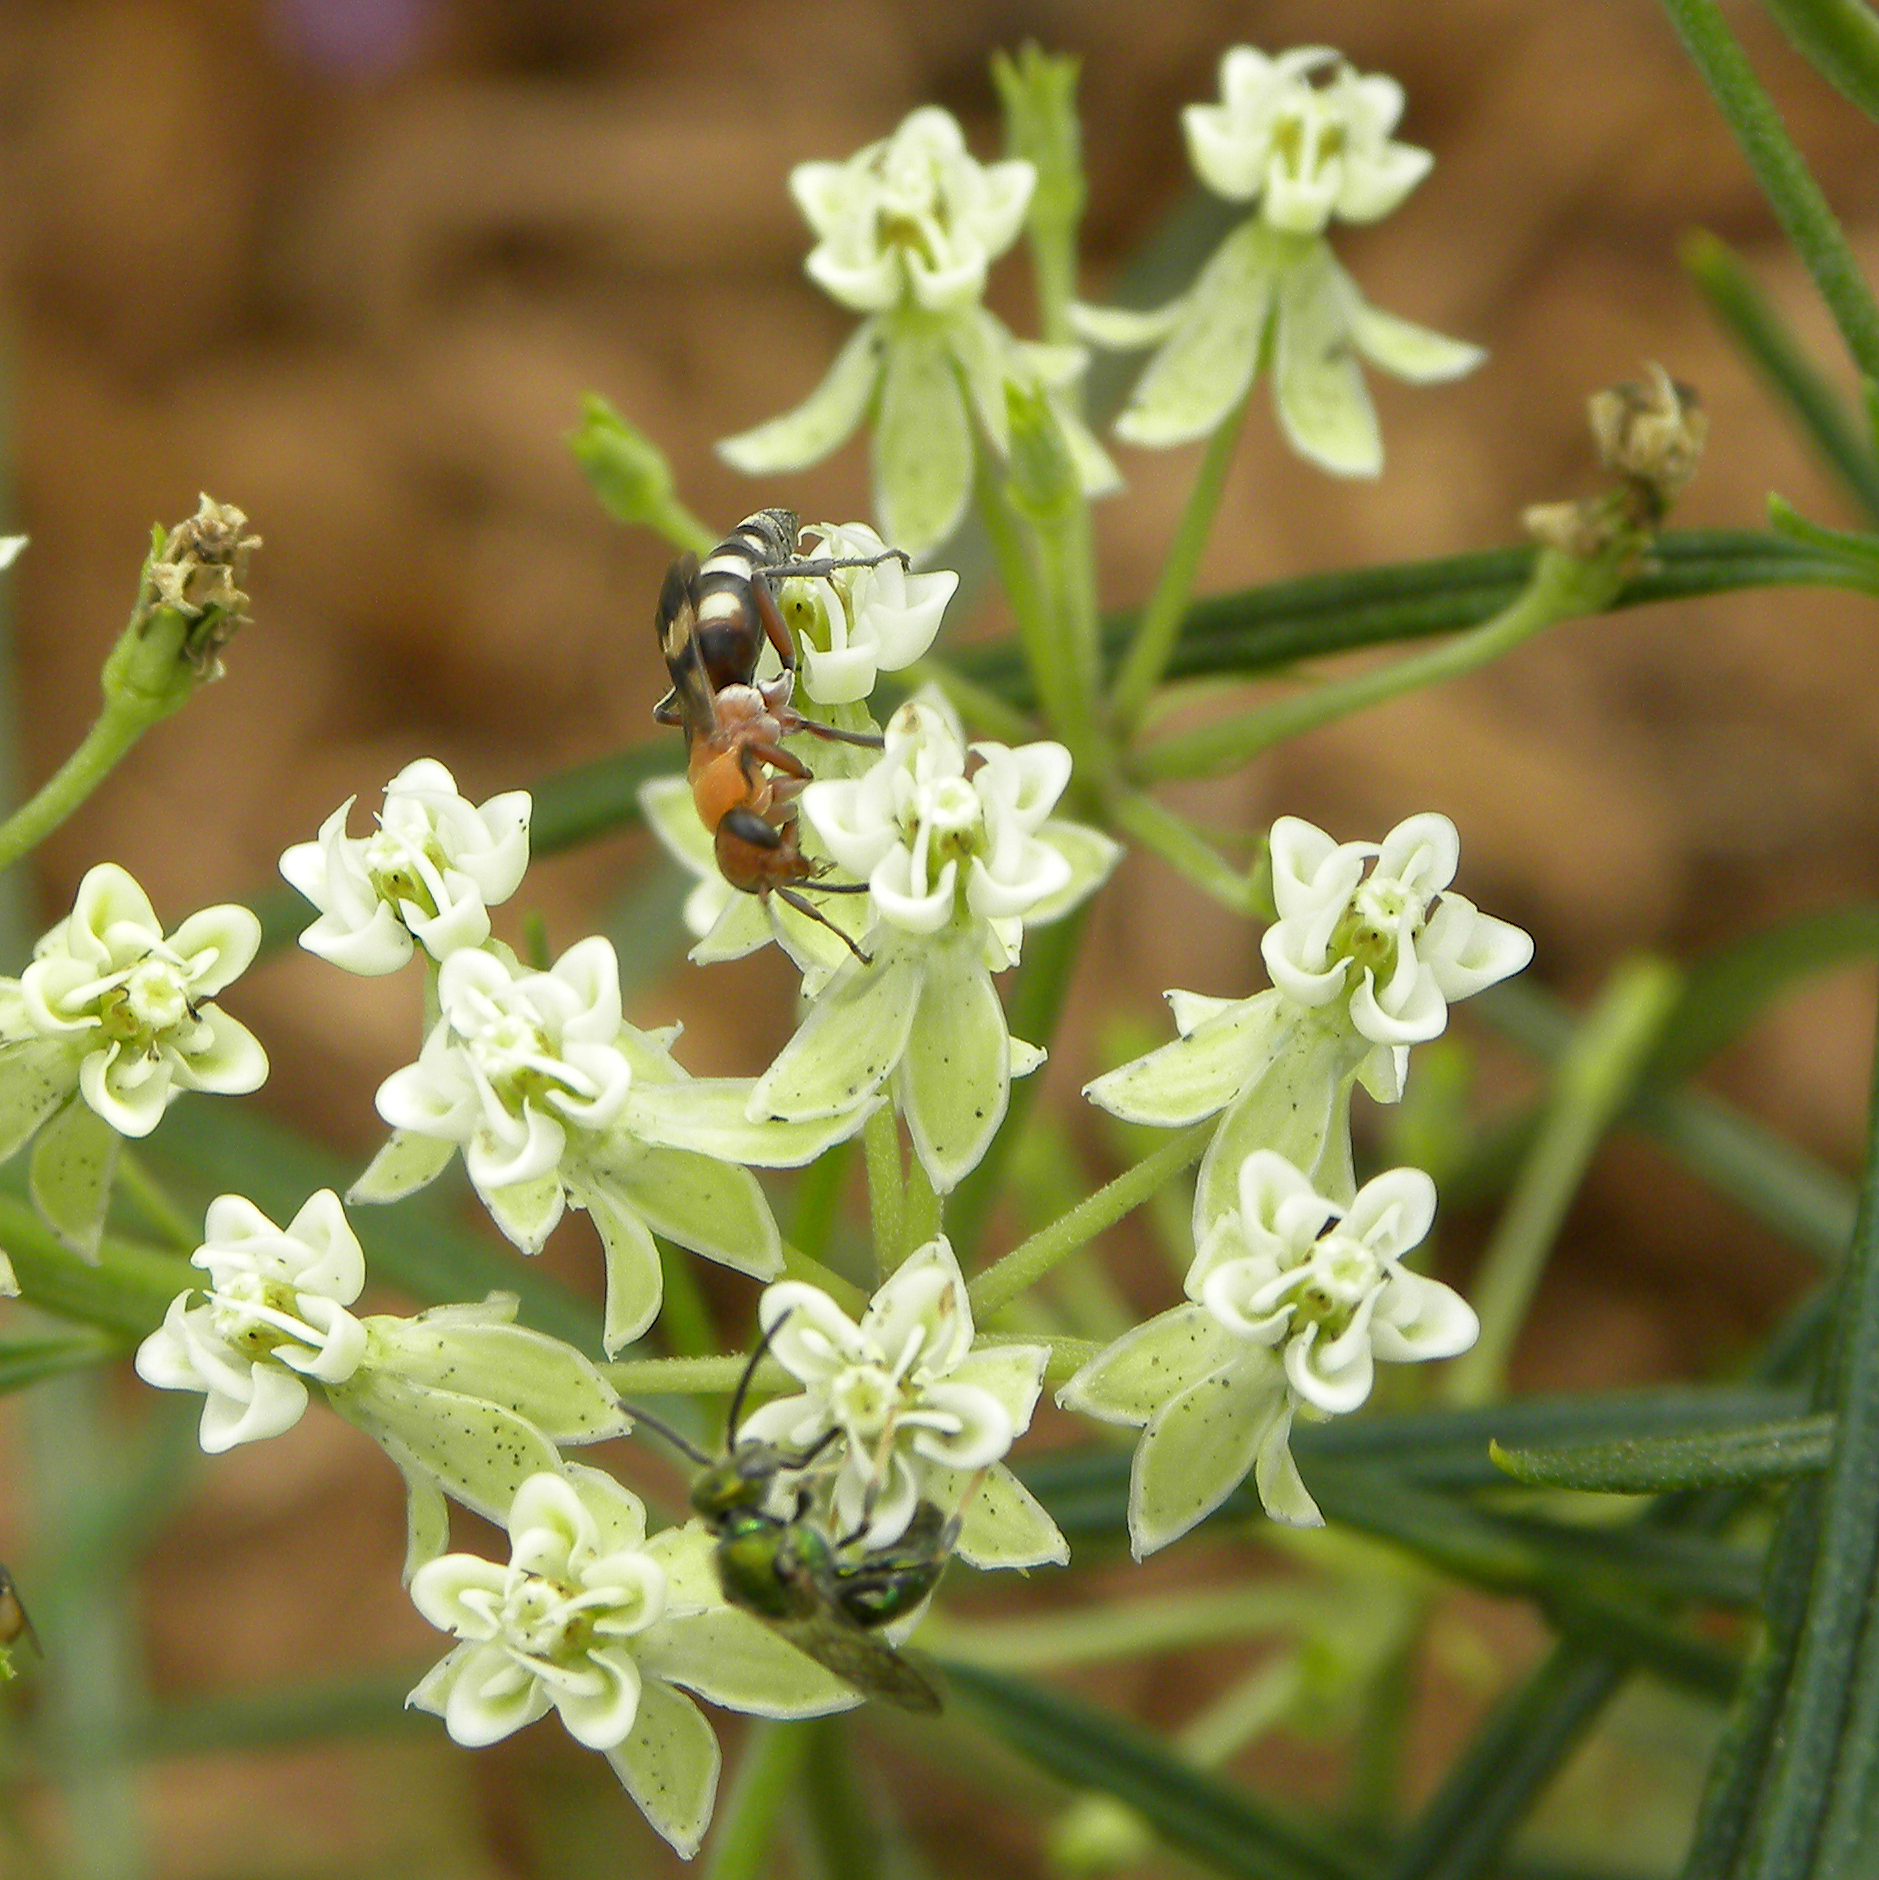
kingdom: Animalia
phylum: Arthropoda
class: Insecta
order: Hymenoptera
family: Pompilidae
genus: Psorthaspis
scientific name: Psorthaspis luctuosa
